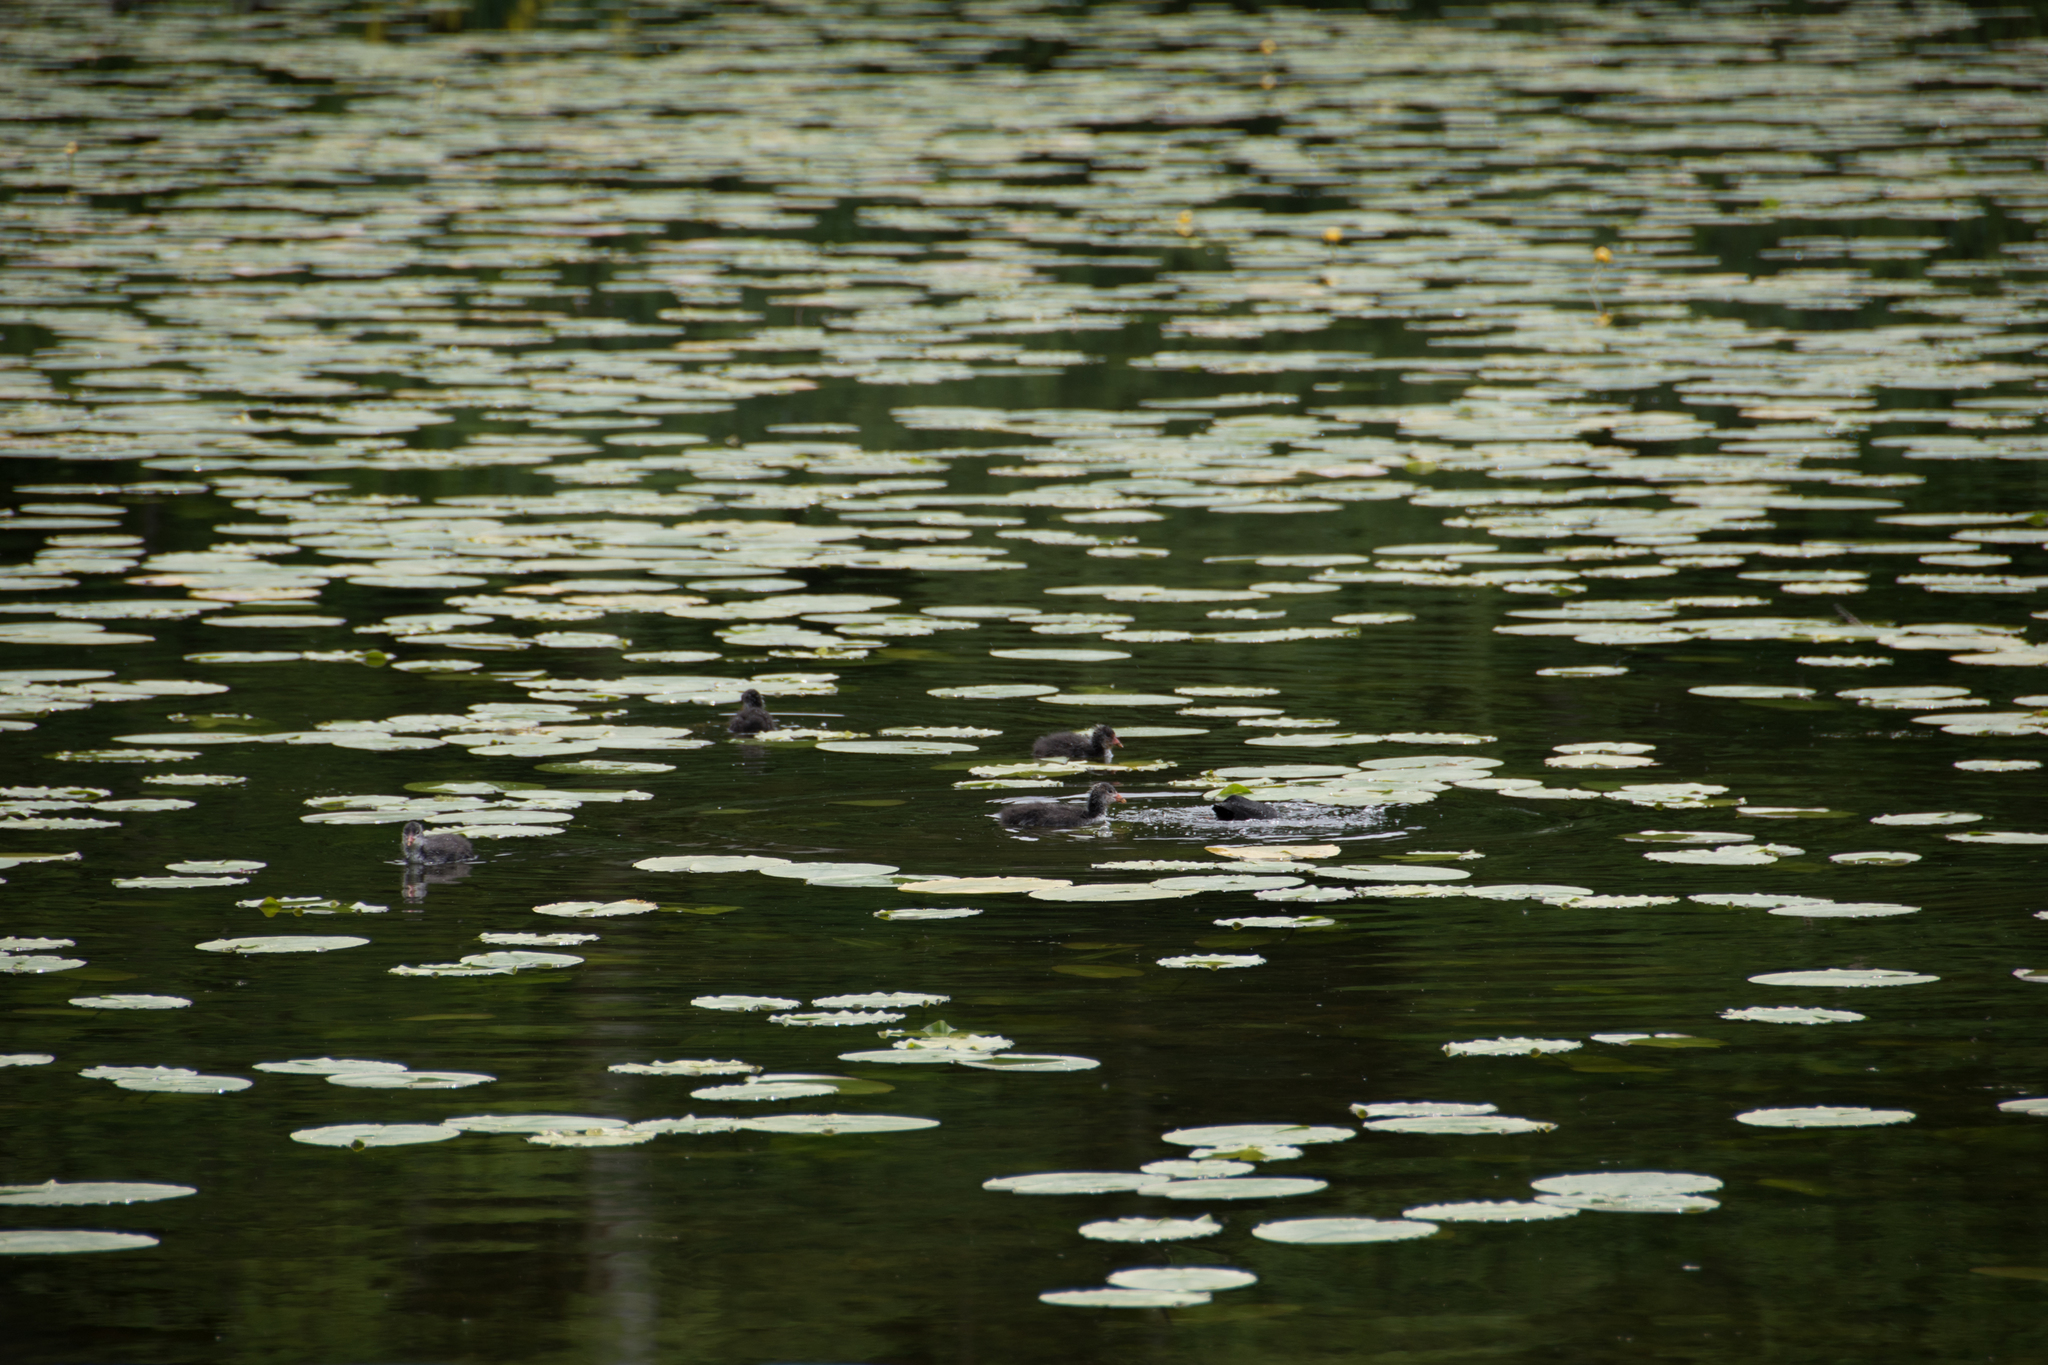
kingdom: Animalia
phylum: Chordata
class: Aves
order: Gruiformes
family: Rallidae
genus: Fulica
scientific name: Fulica atra
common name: Eurasian coot
